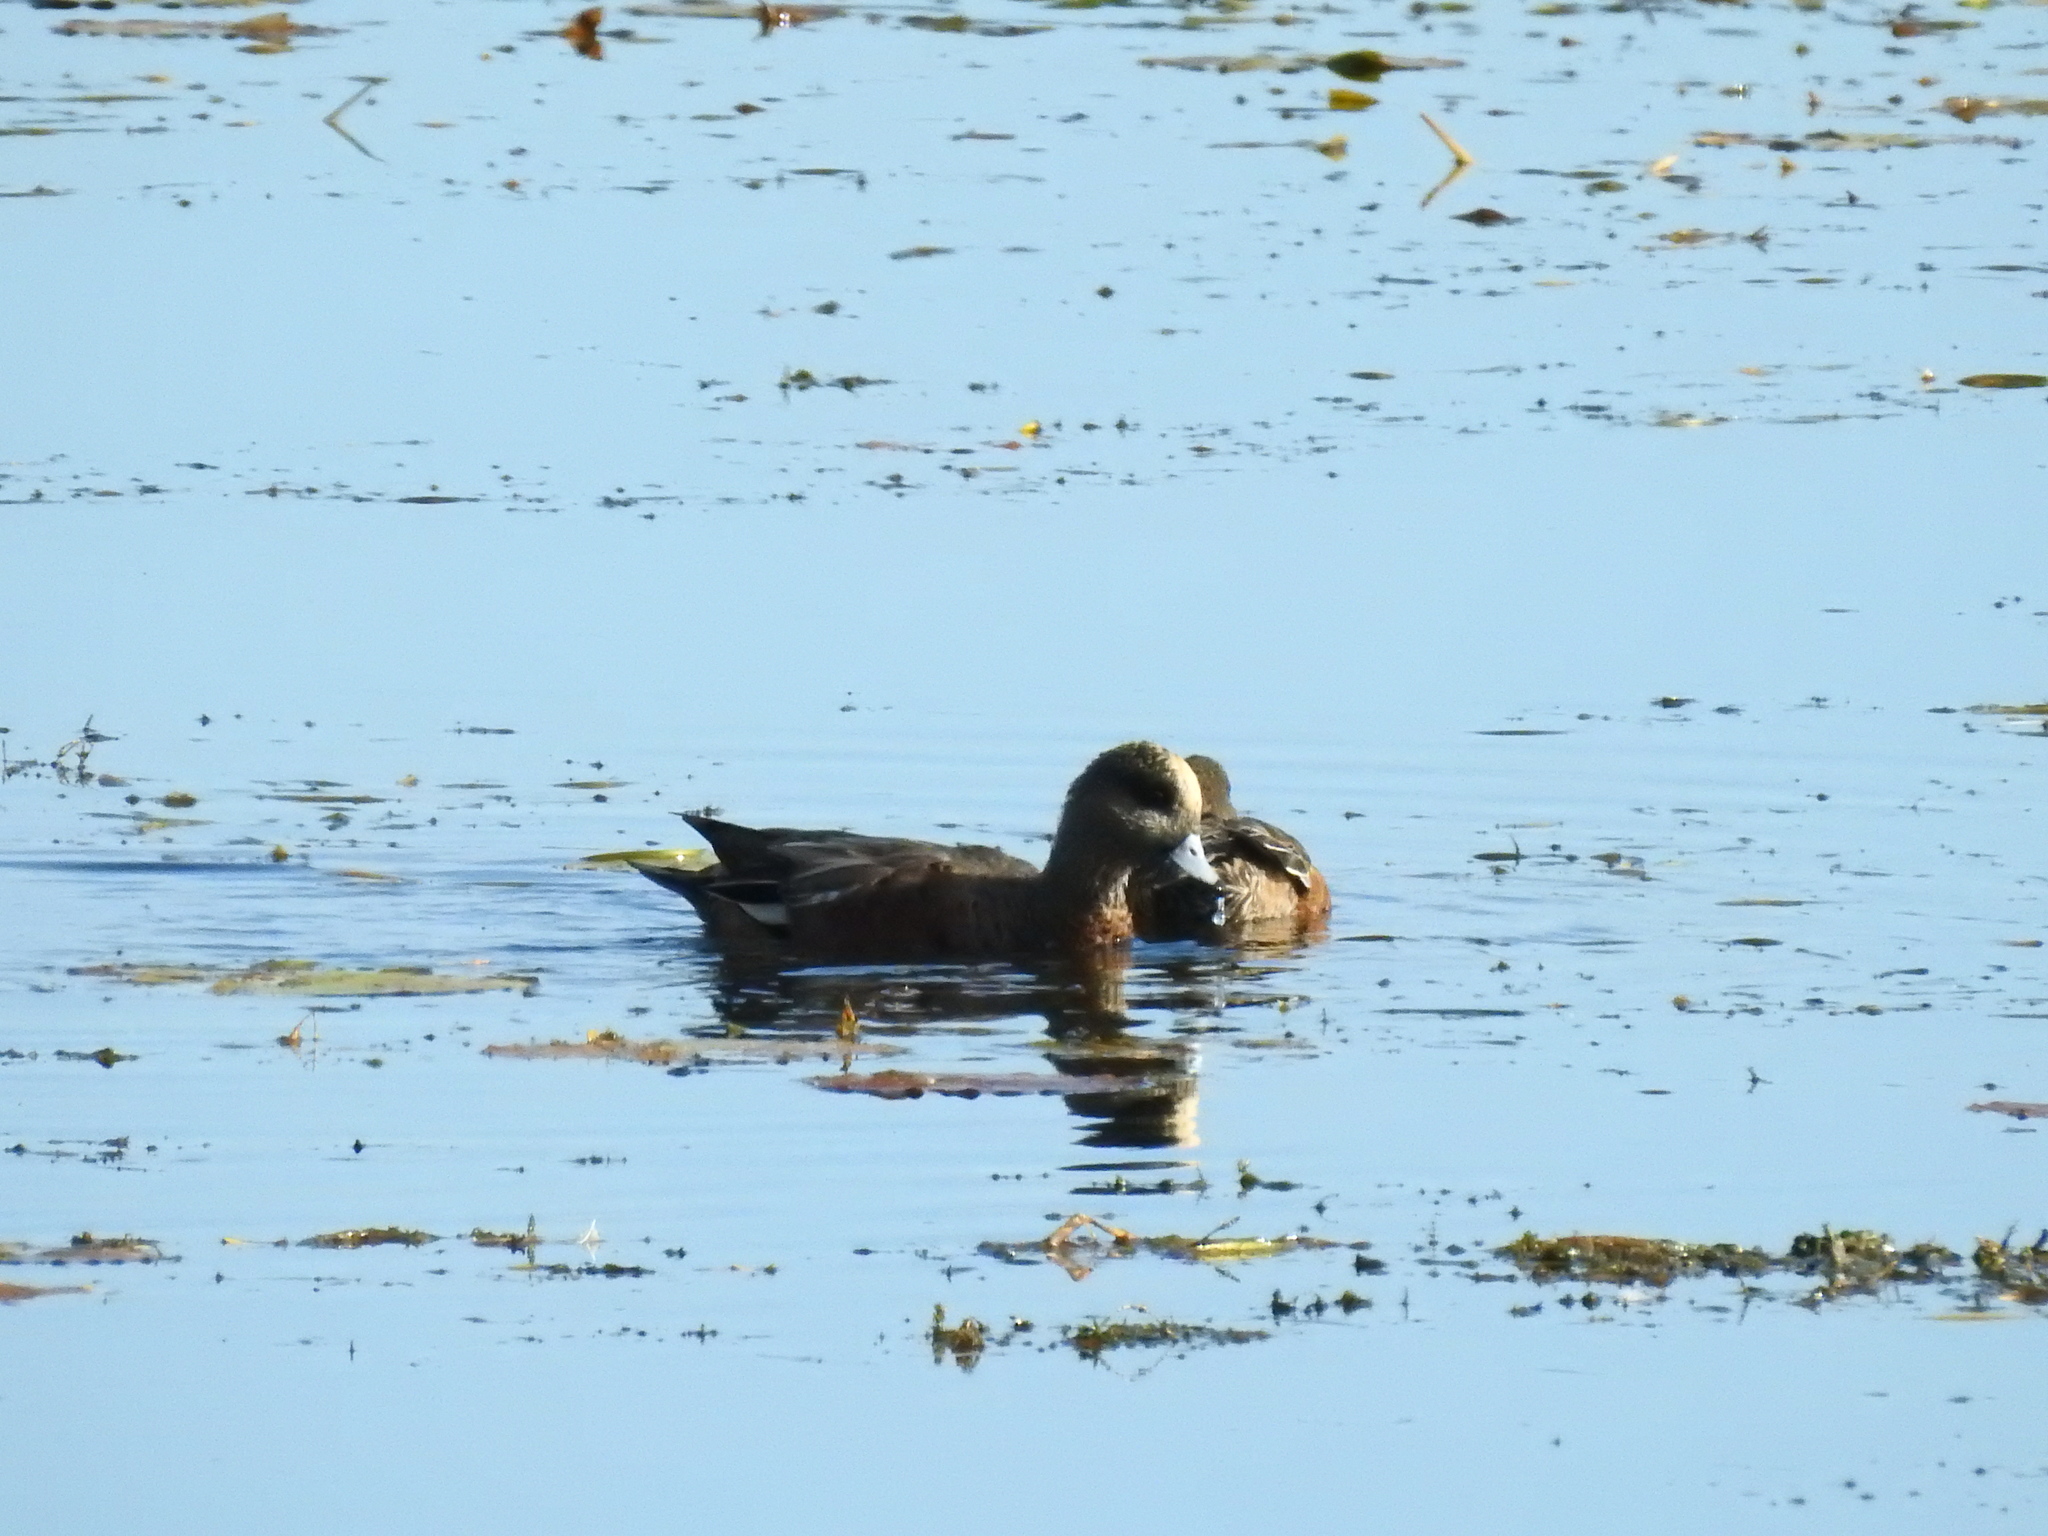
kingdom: Animalia
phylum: Chordata
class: Aves
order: Anseriformes
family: Anatidae
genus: Mareca
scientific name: Mareca americana
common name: American wigeon
